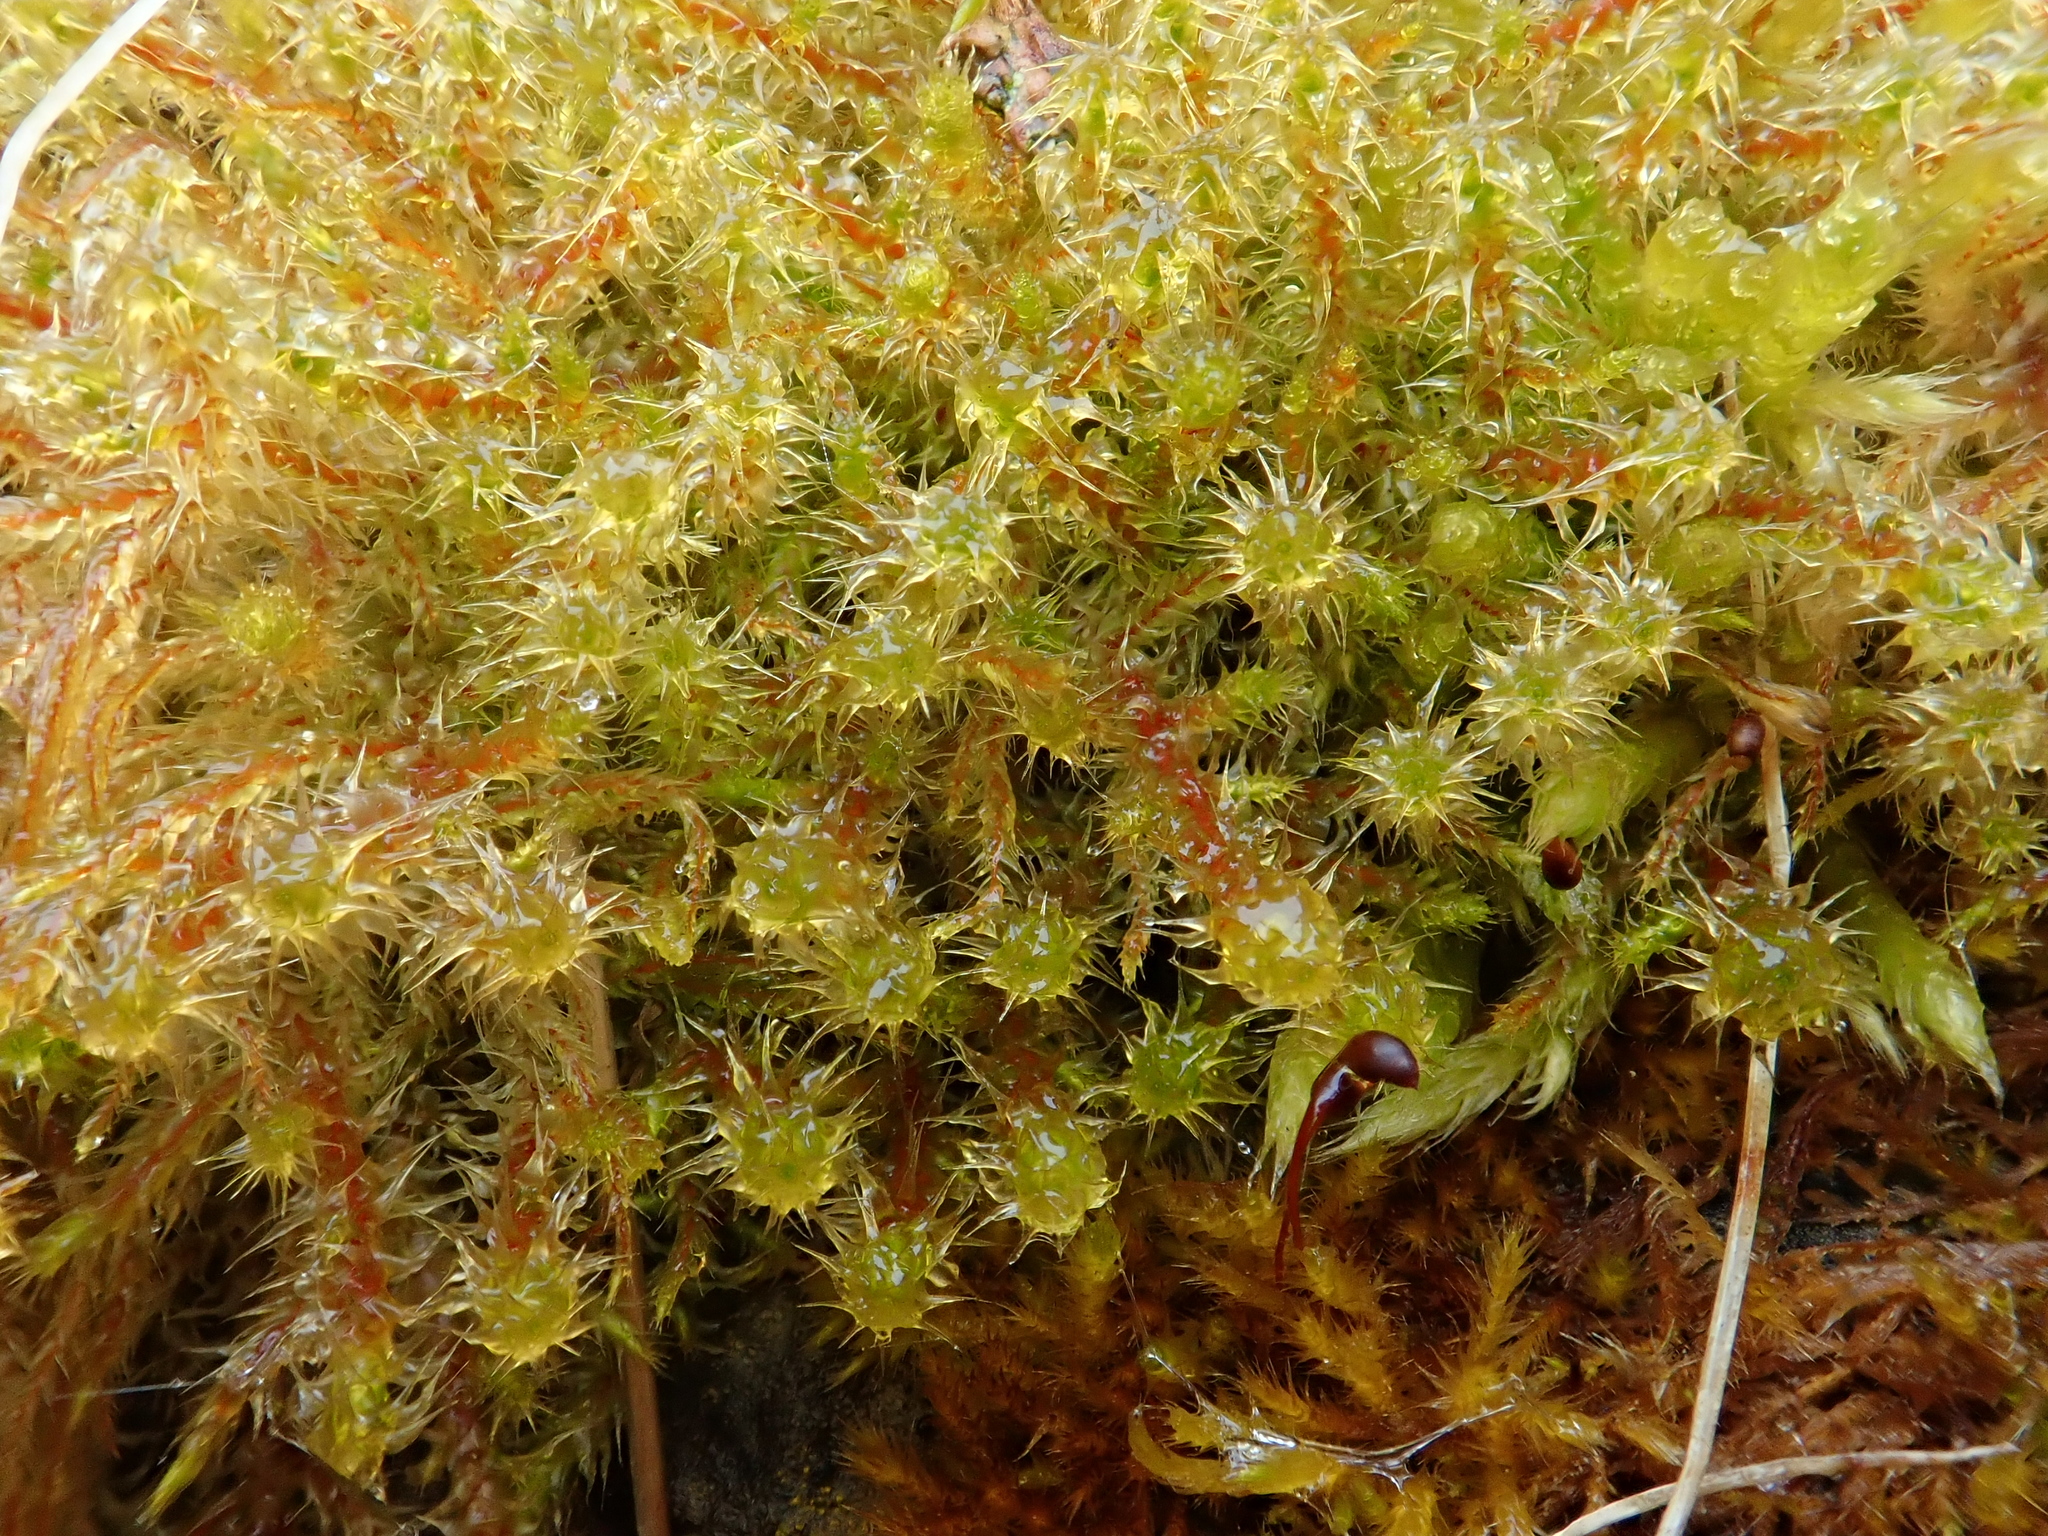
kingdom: Plantae
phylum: Bryophyta
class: Bryopsida
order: Hypnales
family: Hylocomiaceae
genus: Rhytidiadelphus
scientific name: Rhytidiadelphus squarrosus
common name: Springy turf-moss
